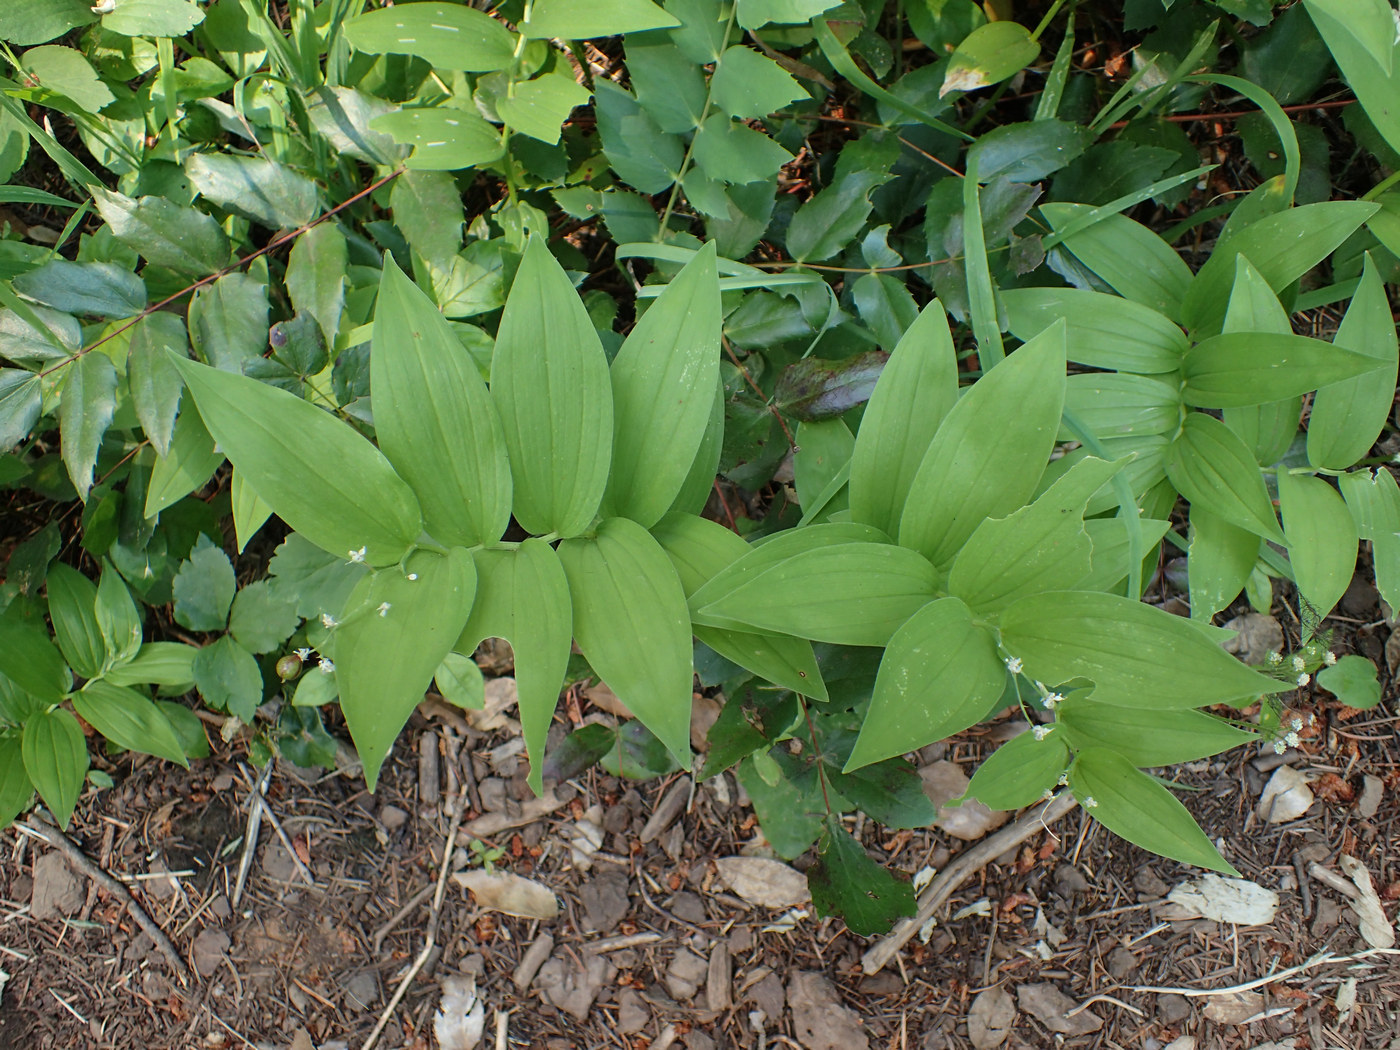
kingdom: Plantae
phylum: Tracheophyta
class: Liliopsida
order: Asparagales
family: Asparagaceae
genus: Maianthemum
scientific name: Maianthemum stellatum
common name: Little false solomon's seal
